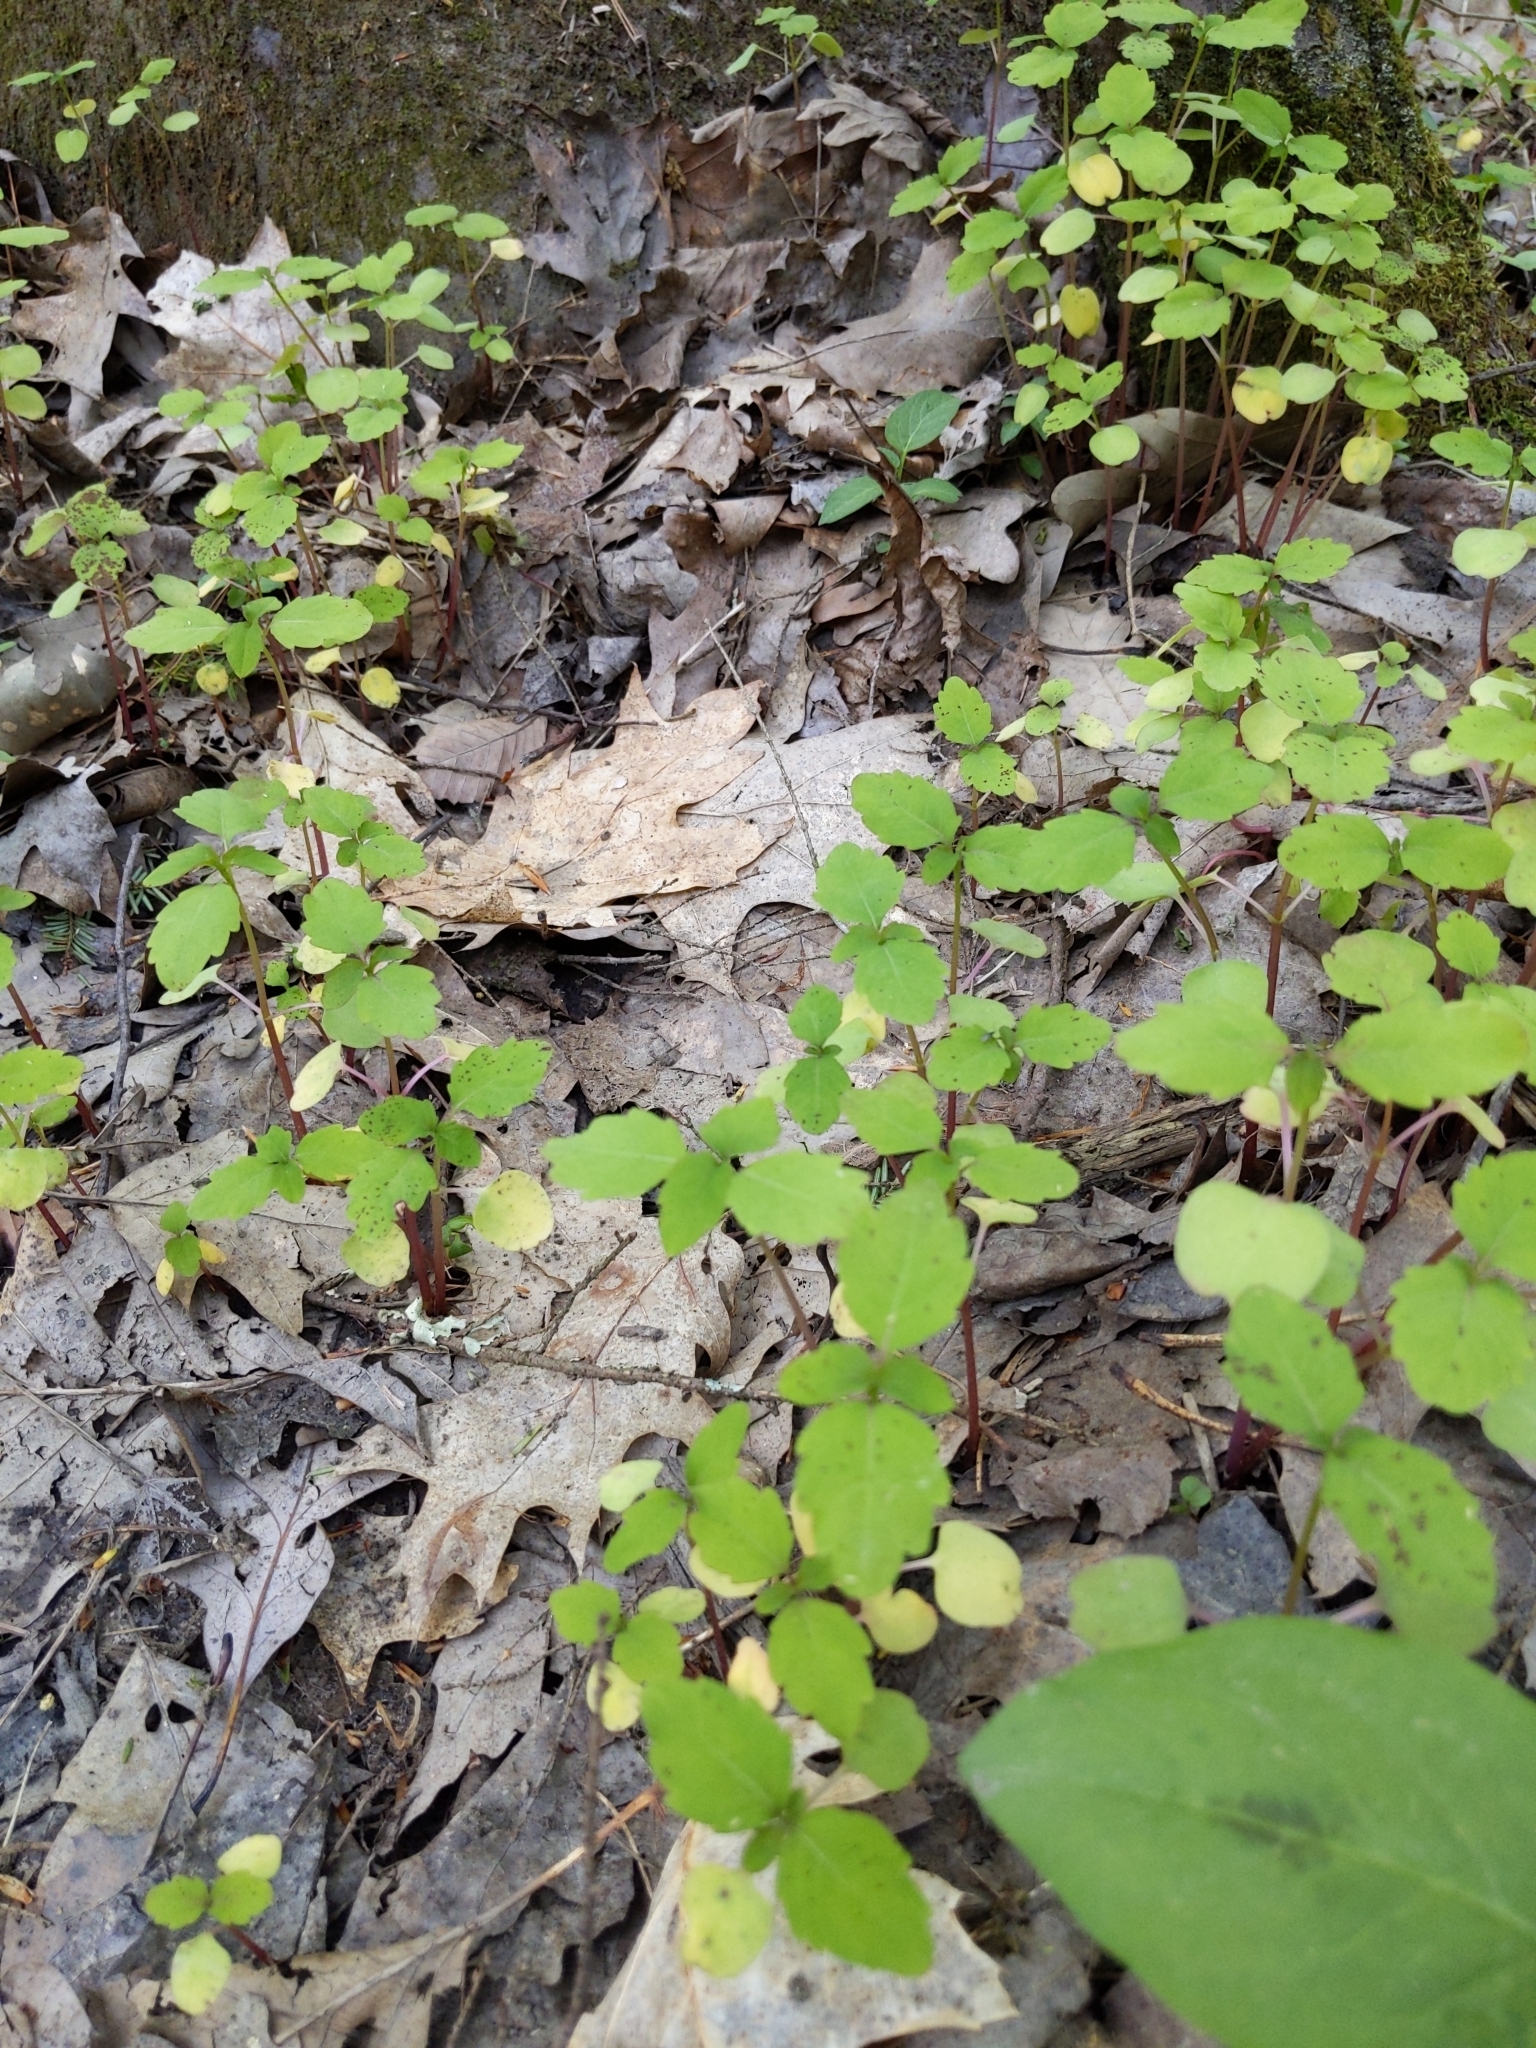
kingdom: Plantae
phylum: Tracheophyta
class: Magnoliopsida
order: Ericales
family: Balsaminaceae
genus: Impatiens
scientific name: Impatiens
